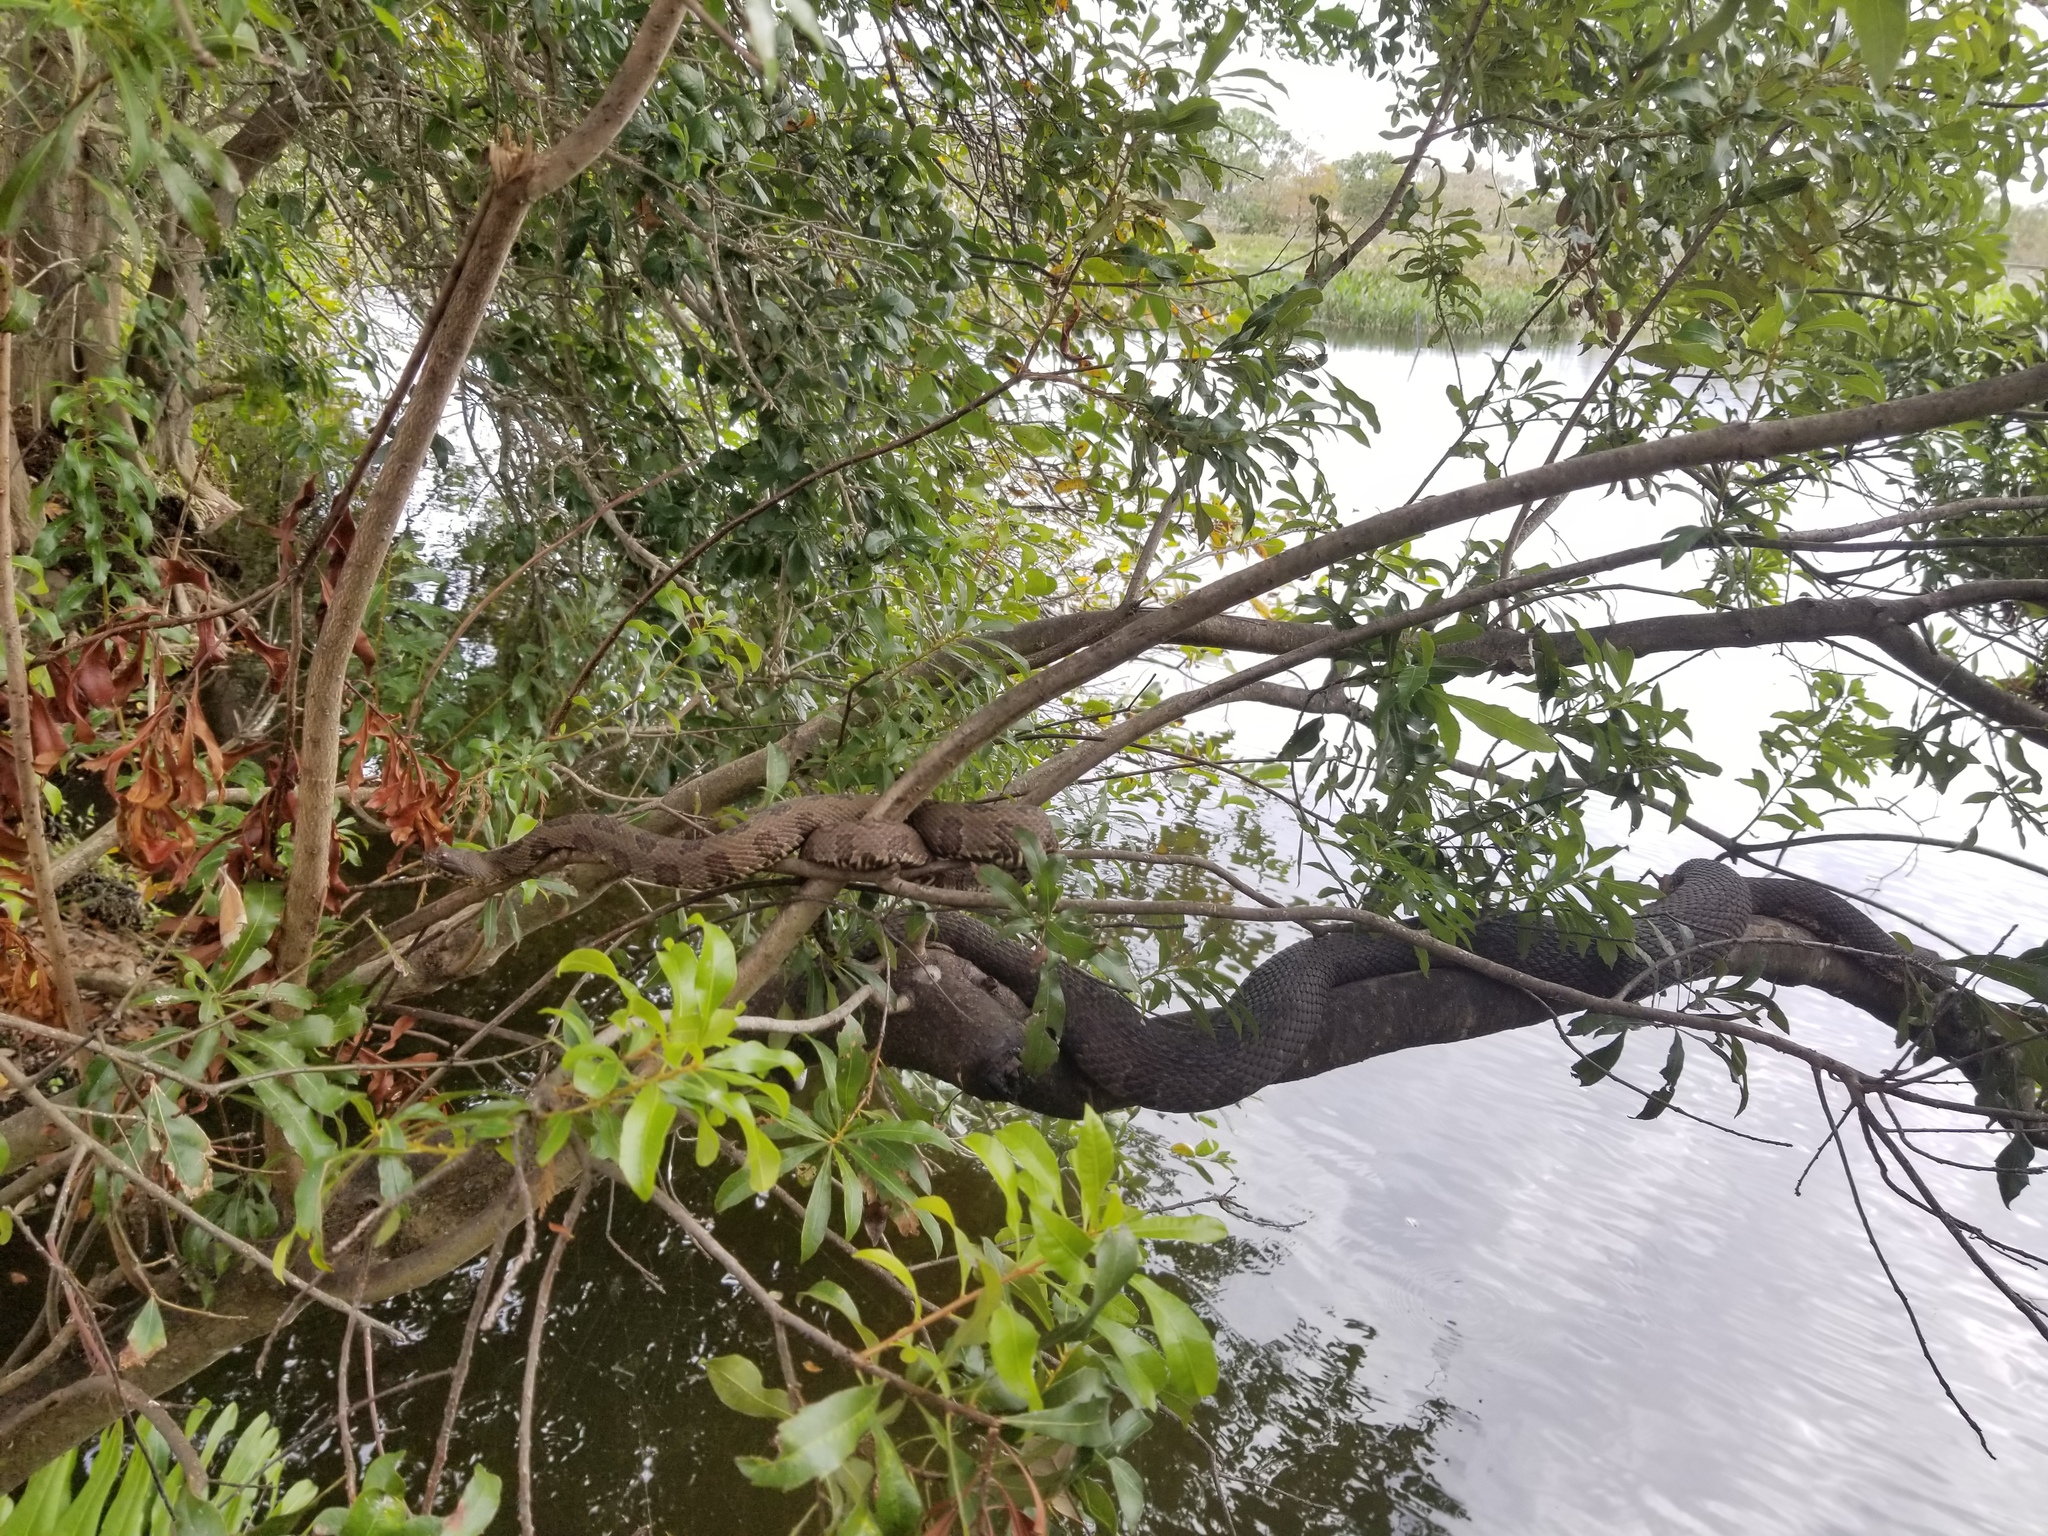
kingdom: Animalia
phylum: Chordata
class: Squamata
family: Colubridae
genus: Nerodia
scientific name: Nerodia taxispilota
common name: Brown water snake
